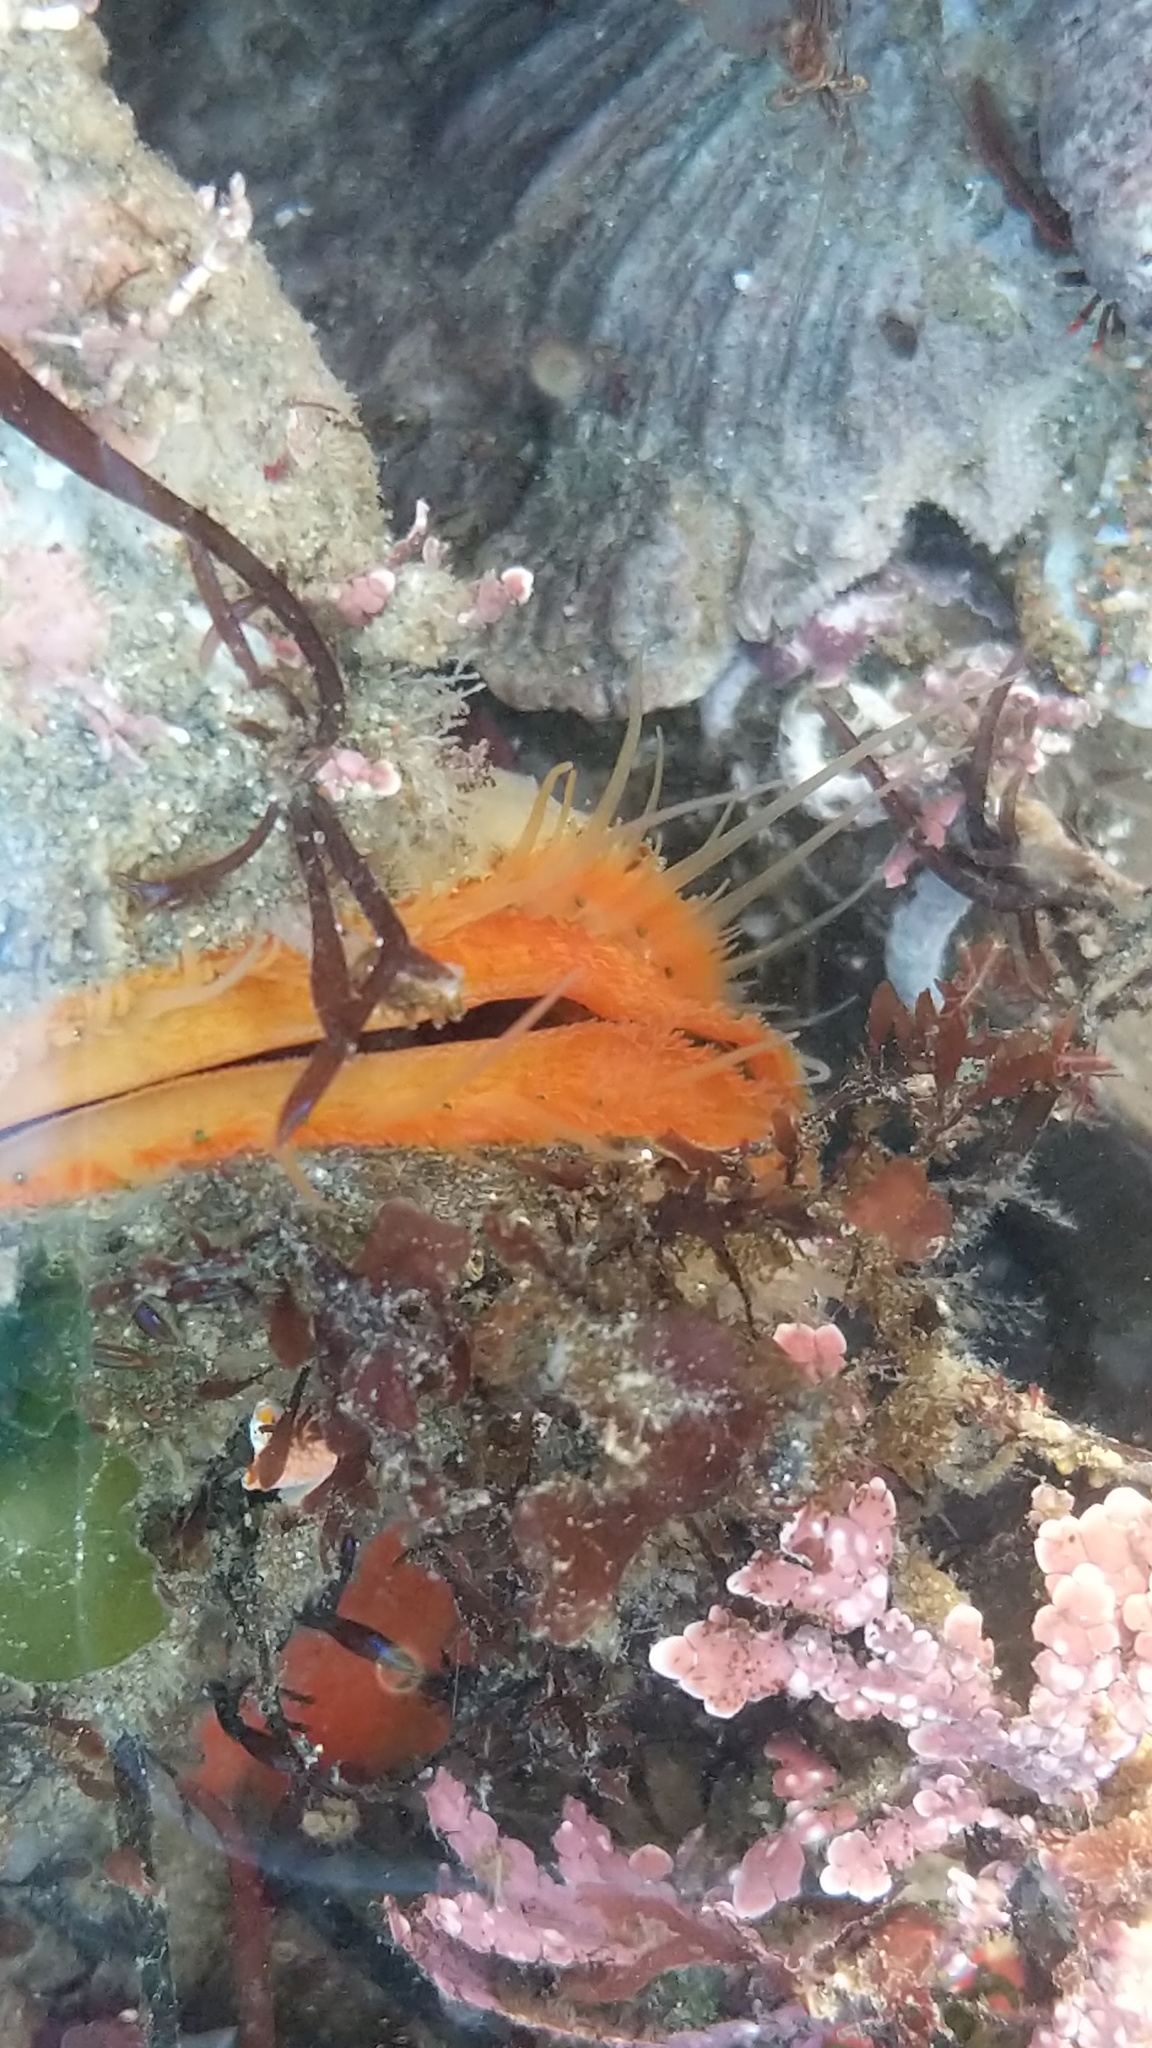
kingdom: Animalia
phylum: Mollusca
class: Bivalvia
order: Pectinida
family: Pectinidae
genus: Crassadoma
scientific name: Crassadoma gigantea
